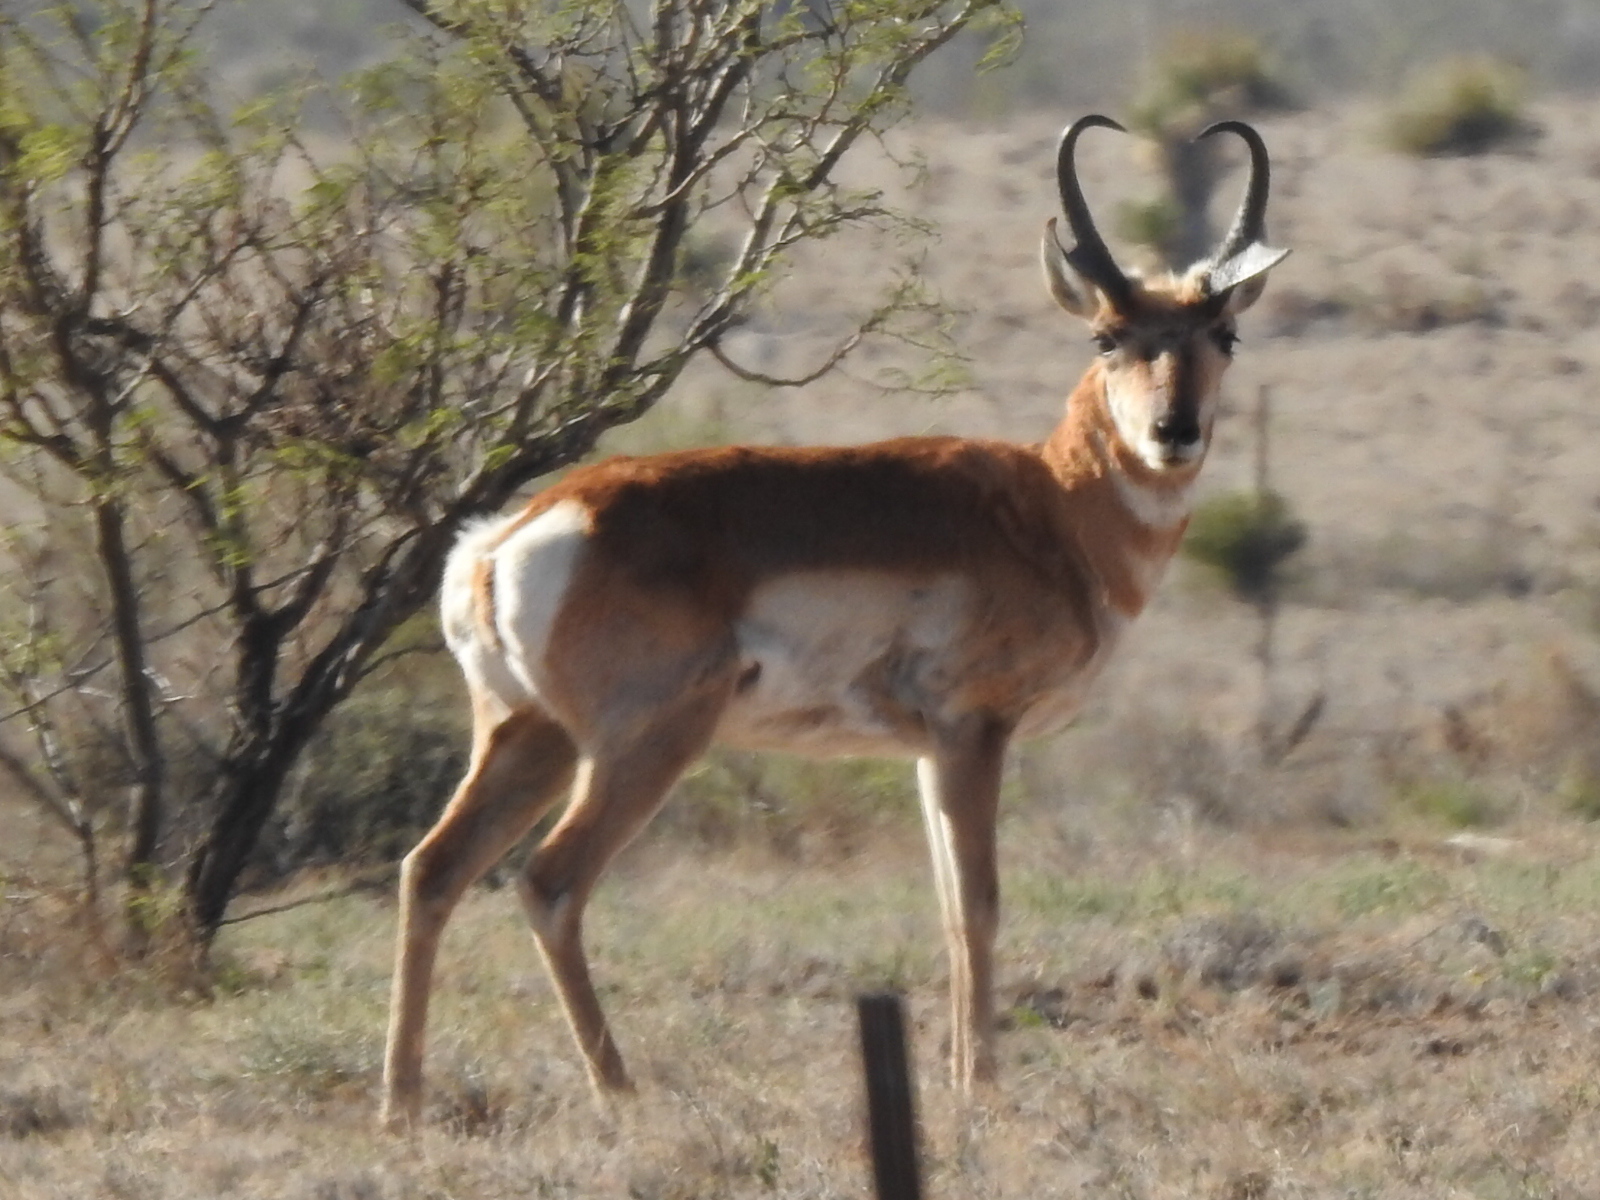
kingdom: Animalia
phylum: Chordata
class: Mammalia
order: Artiodactyla
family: Antilocapridae
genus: Antilocapra
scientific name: Antilocapra americana
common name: Pronghorn
